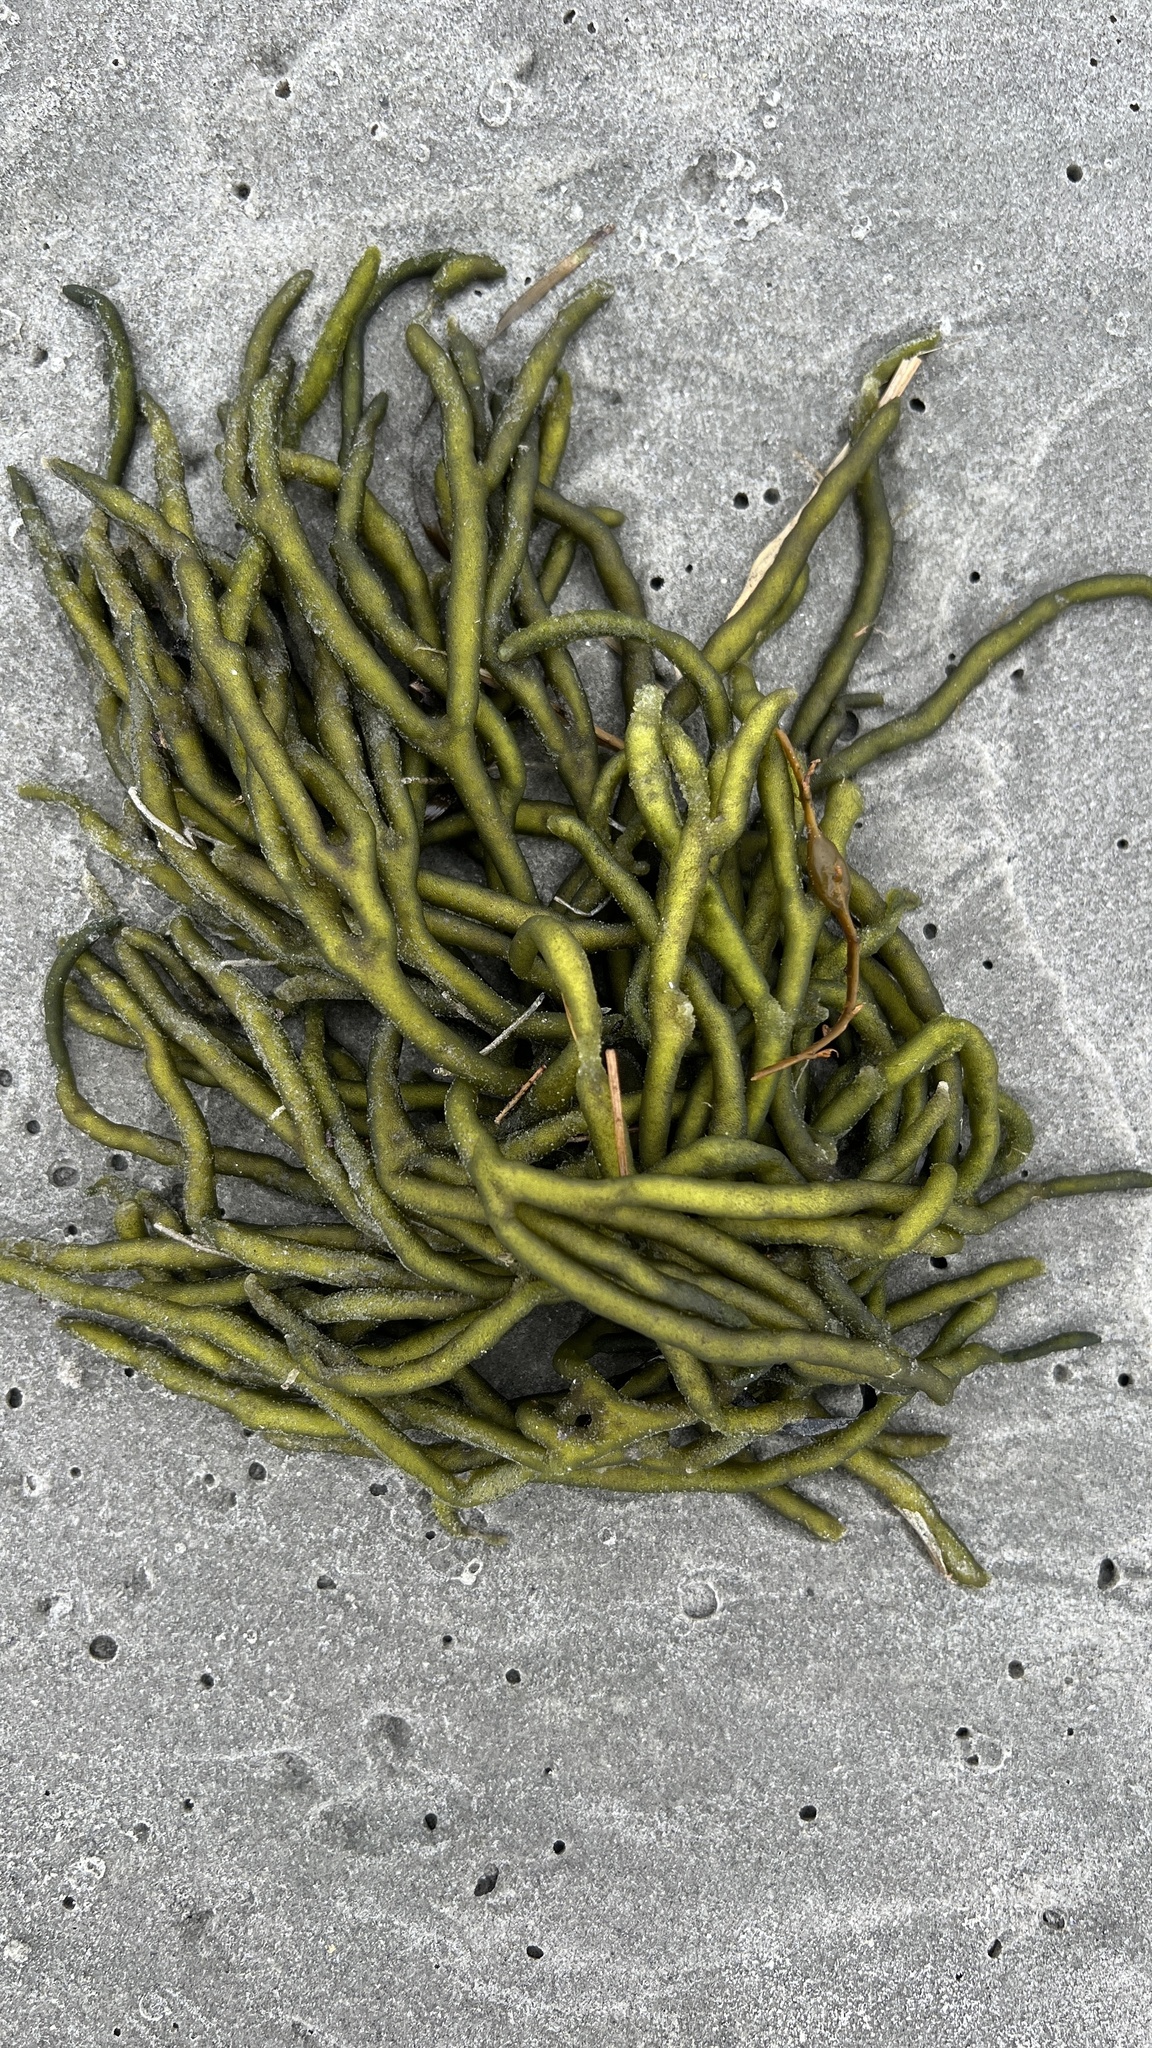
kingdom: Plantae
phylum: Chlorophyta
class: Ulvophyceae
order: Bryopsidales
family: Codiaceae
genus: Codium
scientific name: Codium fragile
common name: Dead man's fingers
